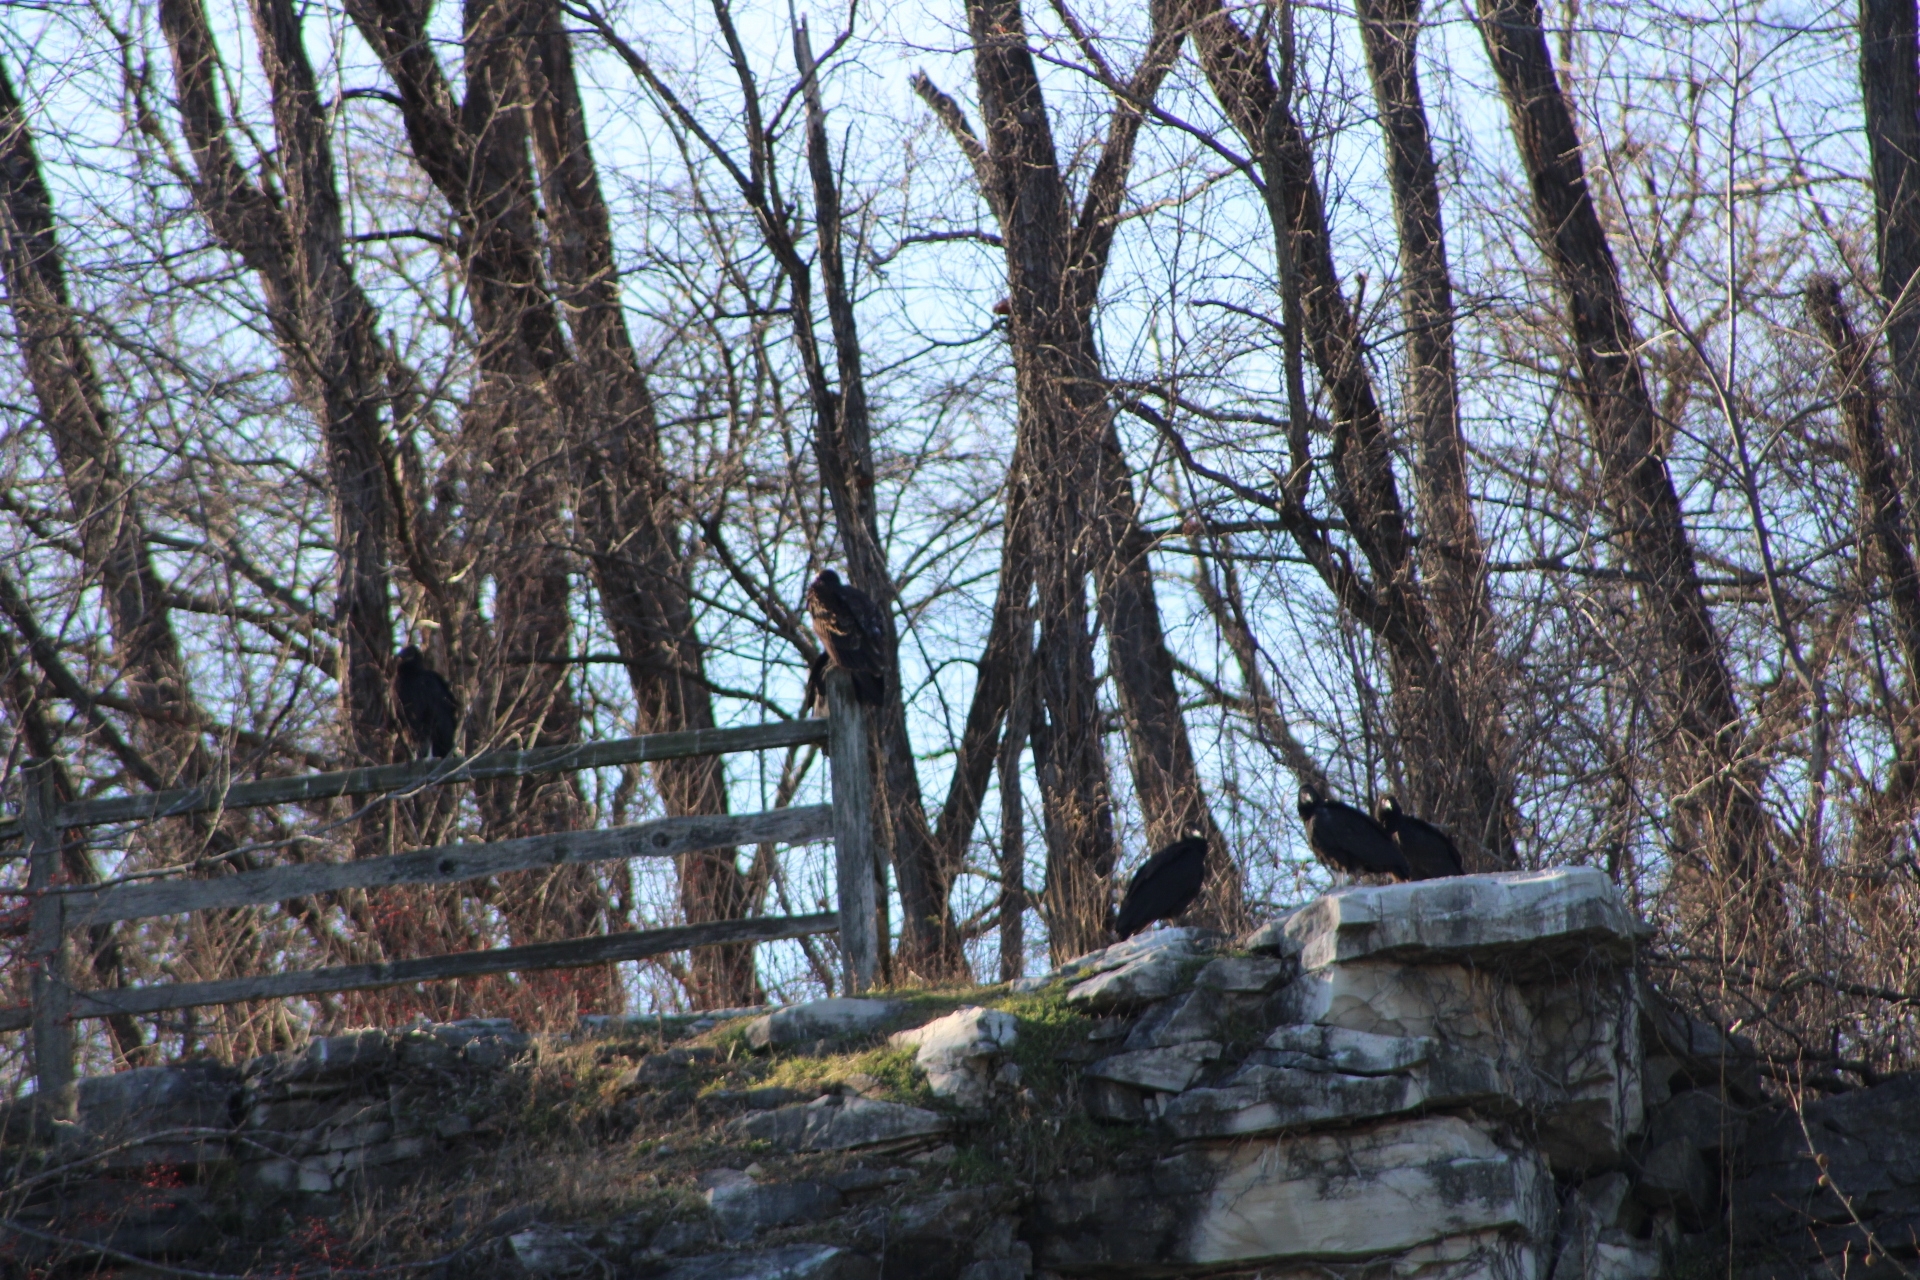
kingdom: Animalia
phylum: Chordata
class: Aves
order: Accipitriformes
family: Cathartidae
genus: Coragyps
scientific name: Coragyps atratus
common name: Black vulture
